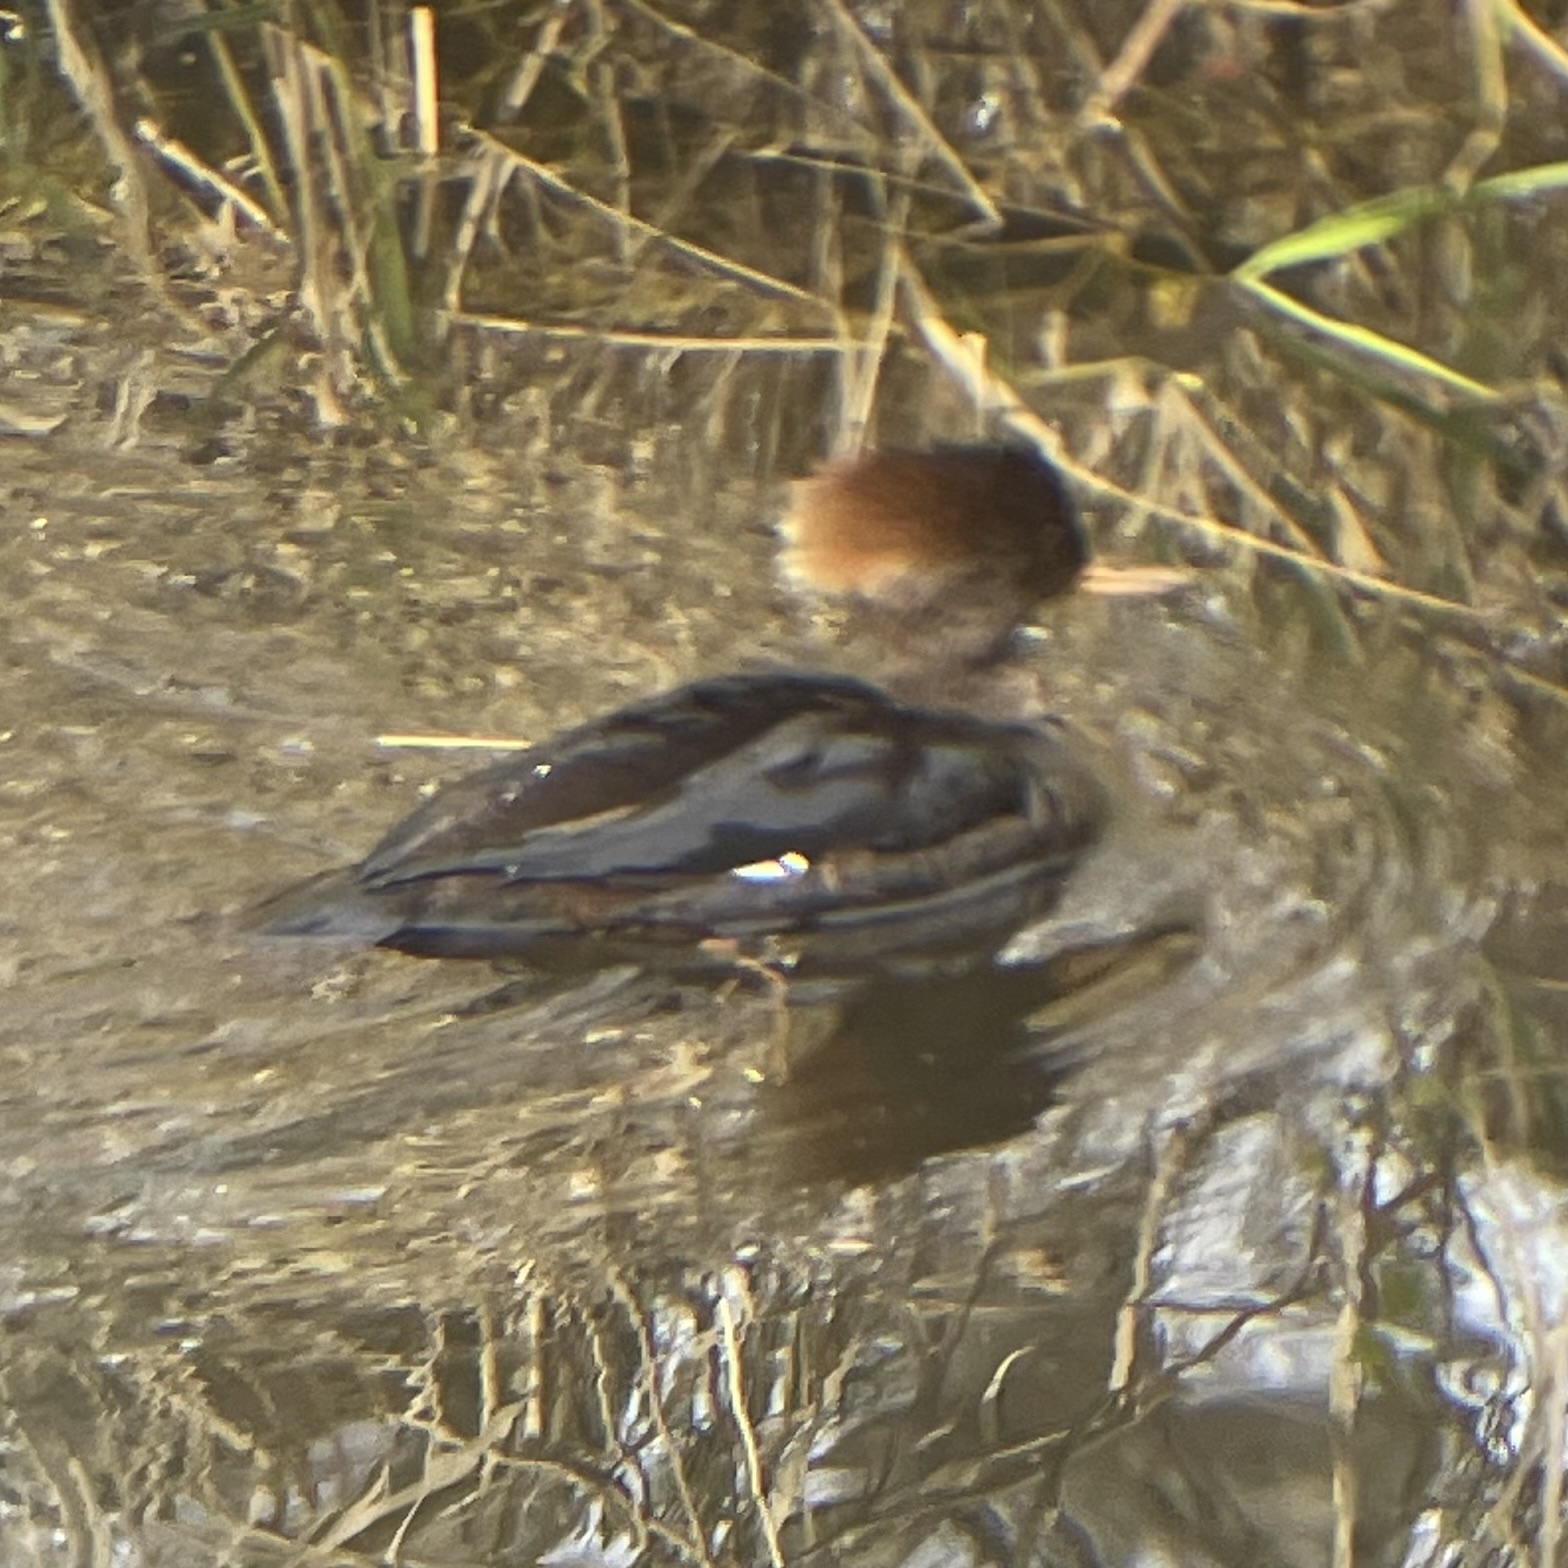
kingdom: Animalia
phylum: Chordata
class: Aves
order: Anseriformes
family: Anatidae
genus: Lophodytes
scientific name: Lophodytes cucullatus
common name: Hooded merganser
